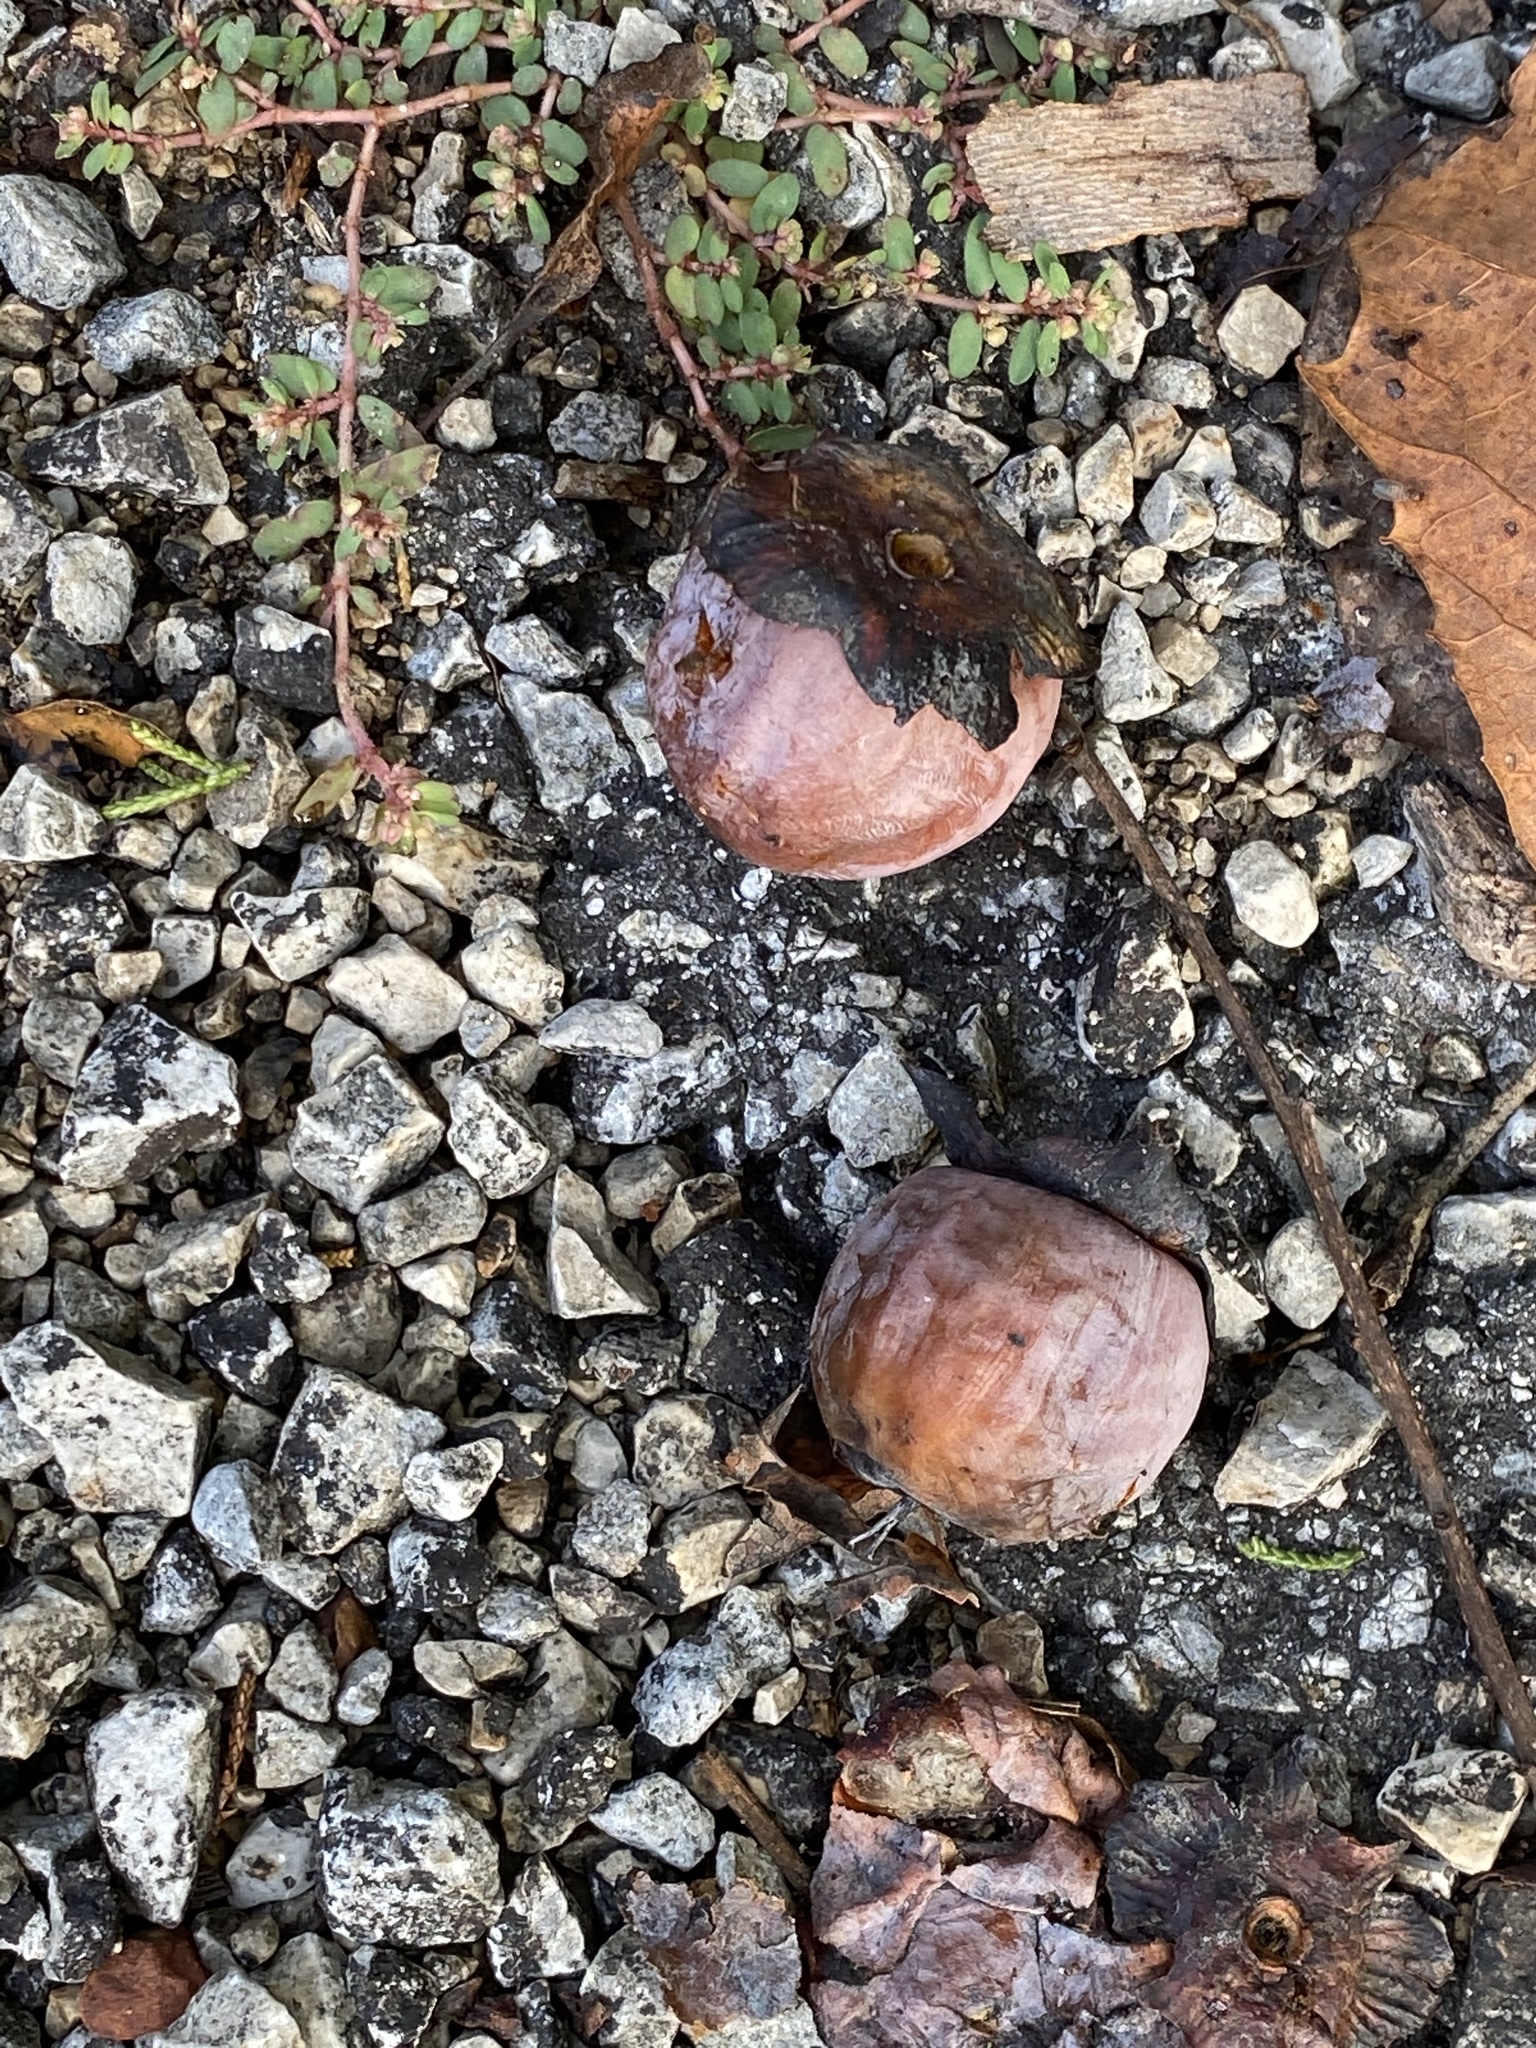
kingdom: Plantae
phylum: Tracheophyta
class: Magnoliopsida
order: Ericales
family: Ebenaceae
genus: Diospyros
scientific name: Diospyros virginiana
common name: Persimmon
